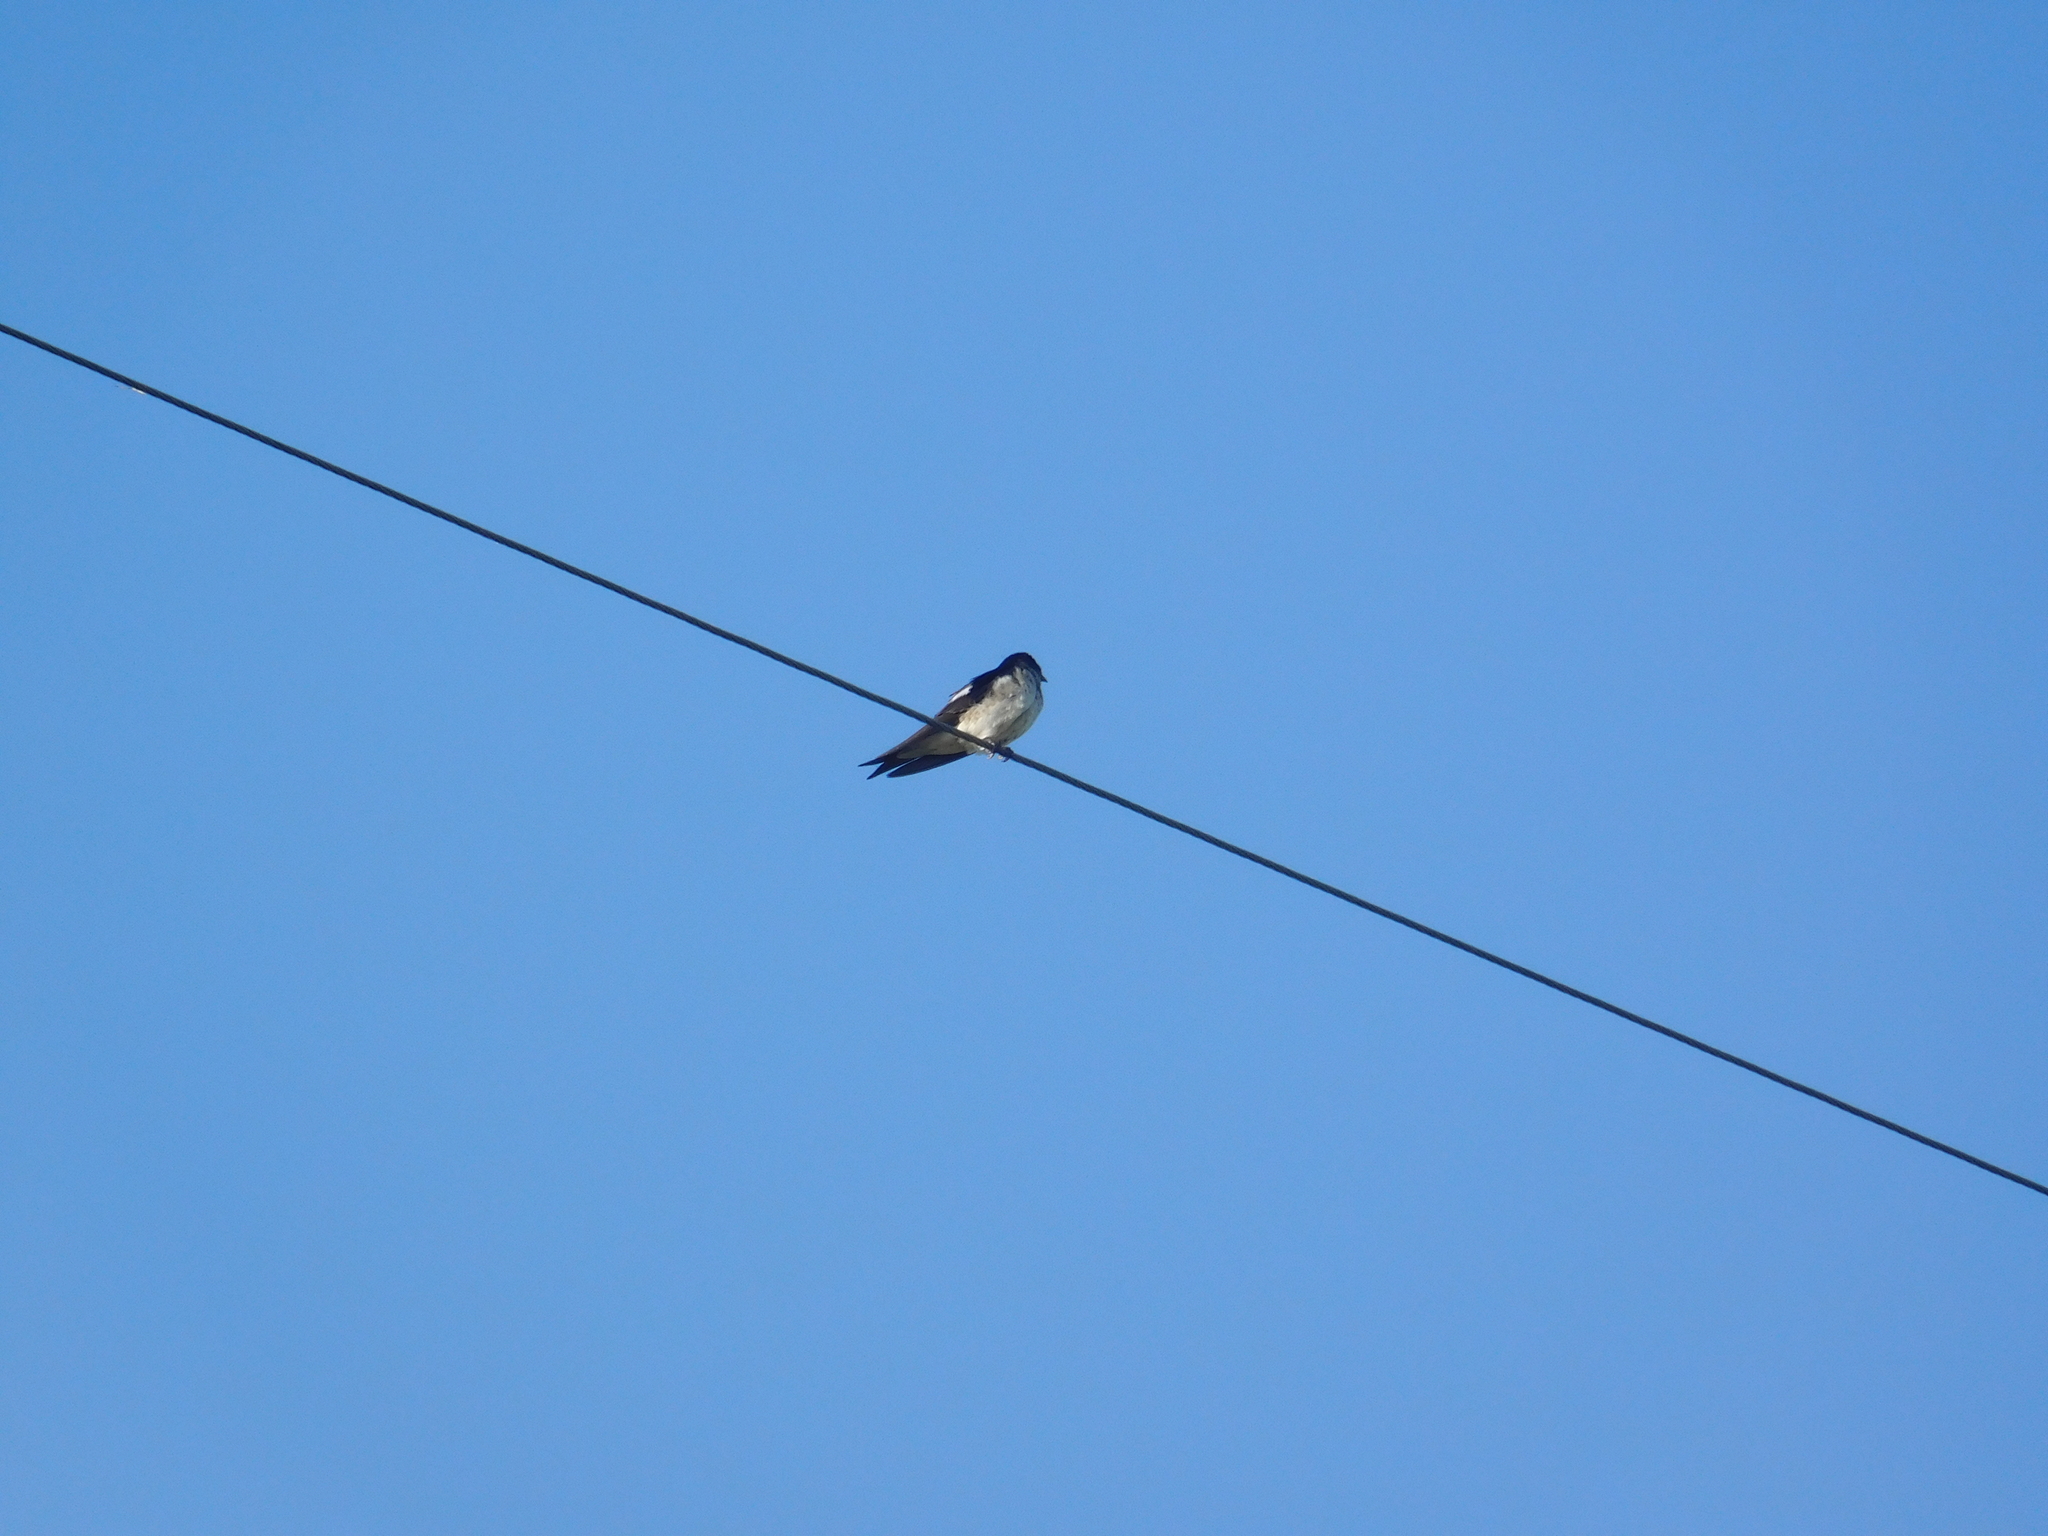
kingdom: Animalia
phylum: Chordata
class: Aves
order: Passeriformes
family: Hirundinidae
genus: Progne
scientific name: Progne chalybea
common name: Grey-breasted martin
